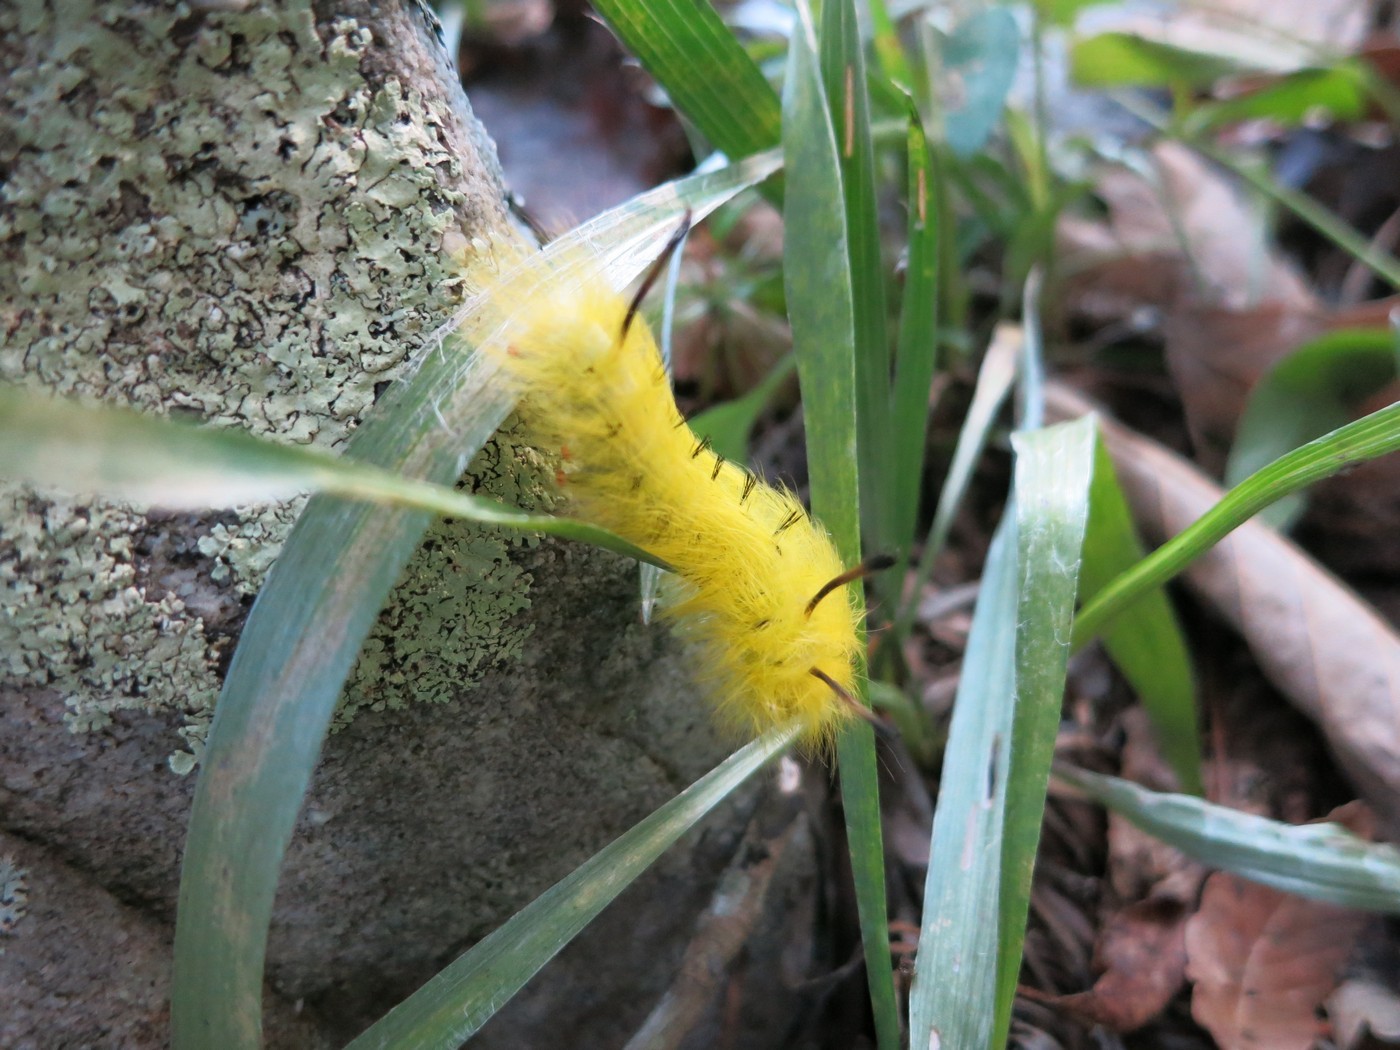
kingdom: Animalia
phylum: Arthropoda
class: Insecta
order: Lepidoptera
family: Apatelodidae
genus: Hygrochroa
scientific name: Hygrochroa Apatelodes torrefacta
